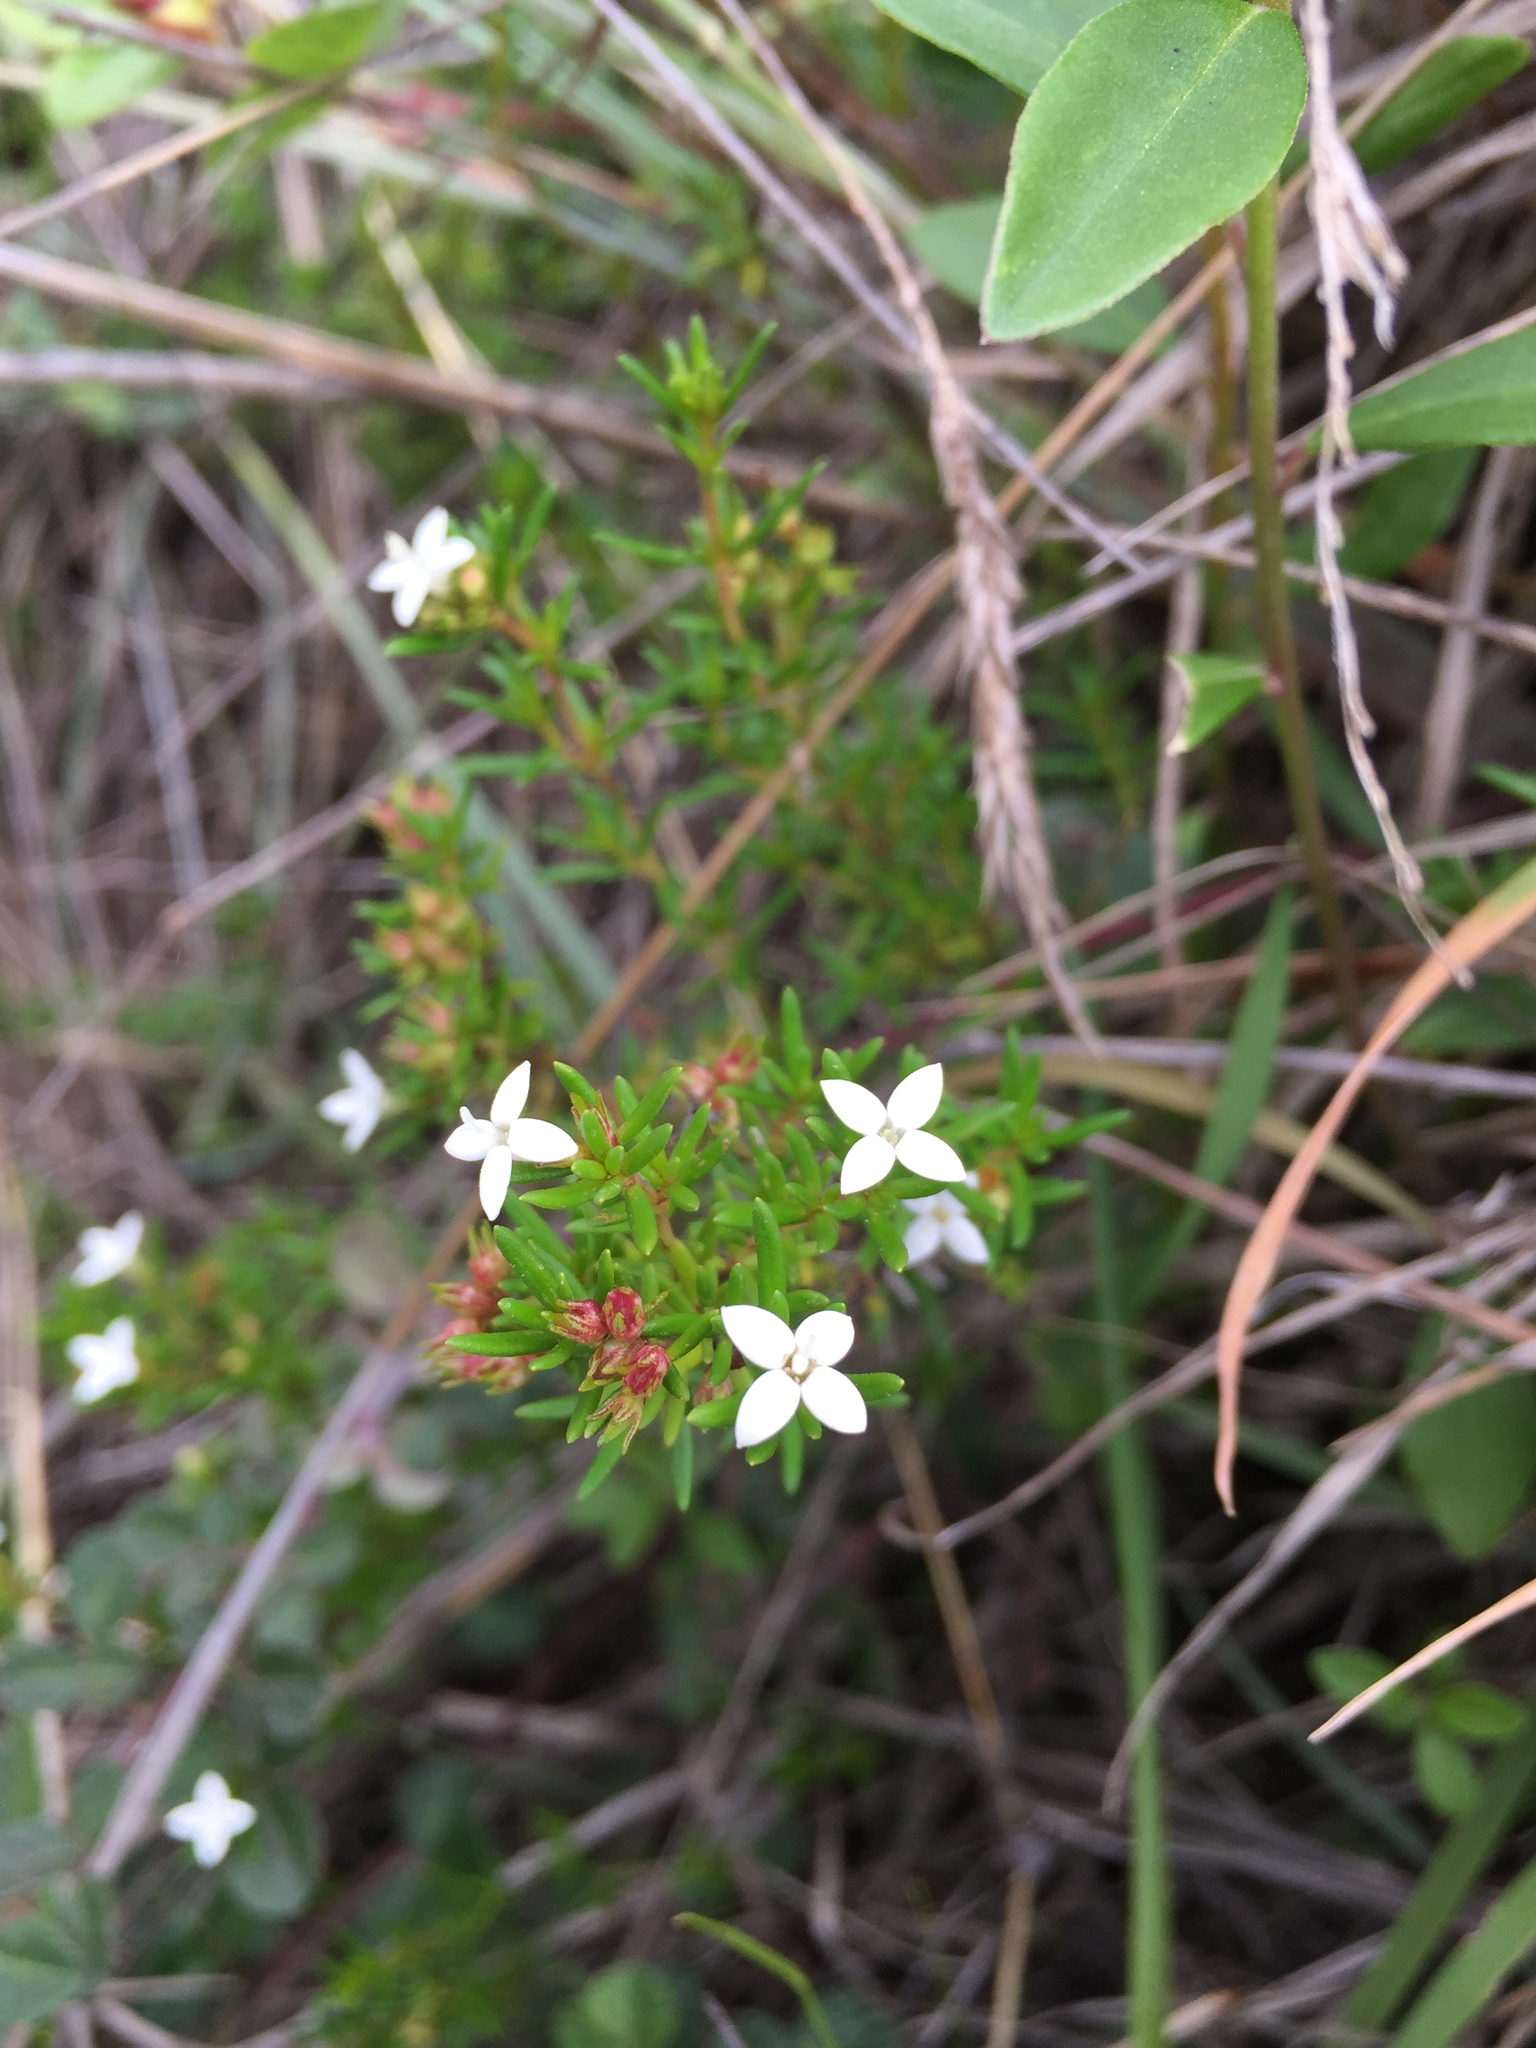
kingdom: Plantae
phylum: Tracheophyta
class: Magnoliopsida
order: Gentianales
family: Rubiaceae
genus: Arcytophyllum
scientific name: Arcytophyllum thymifolium
